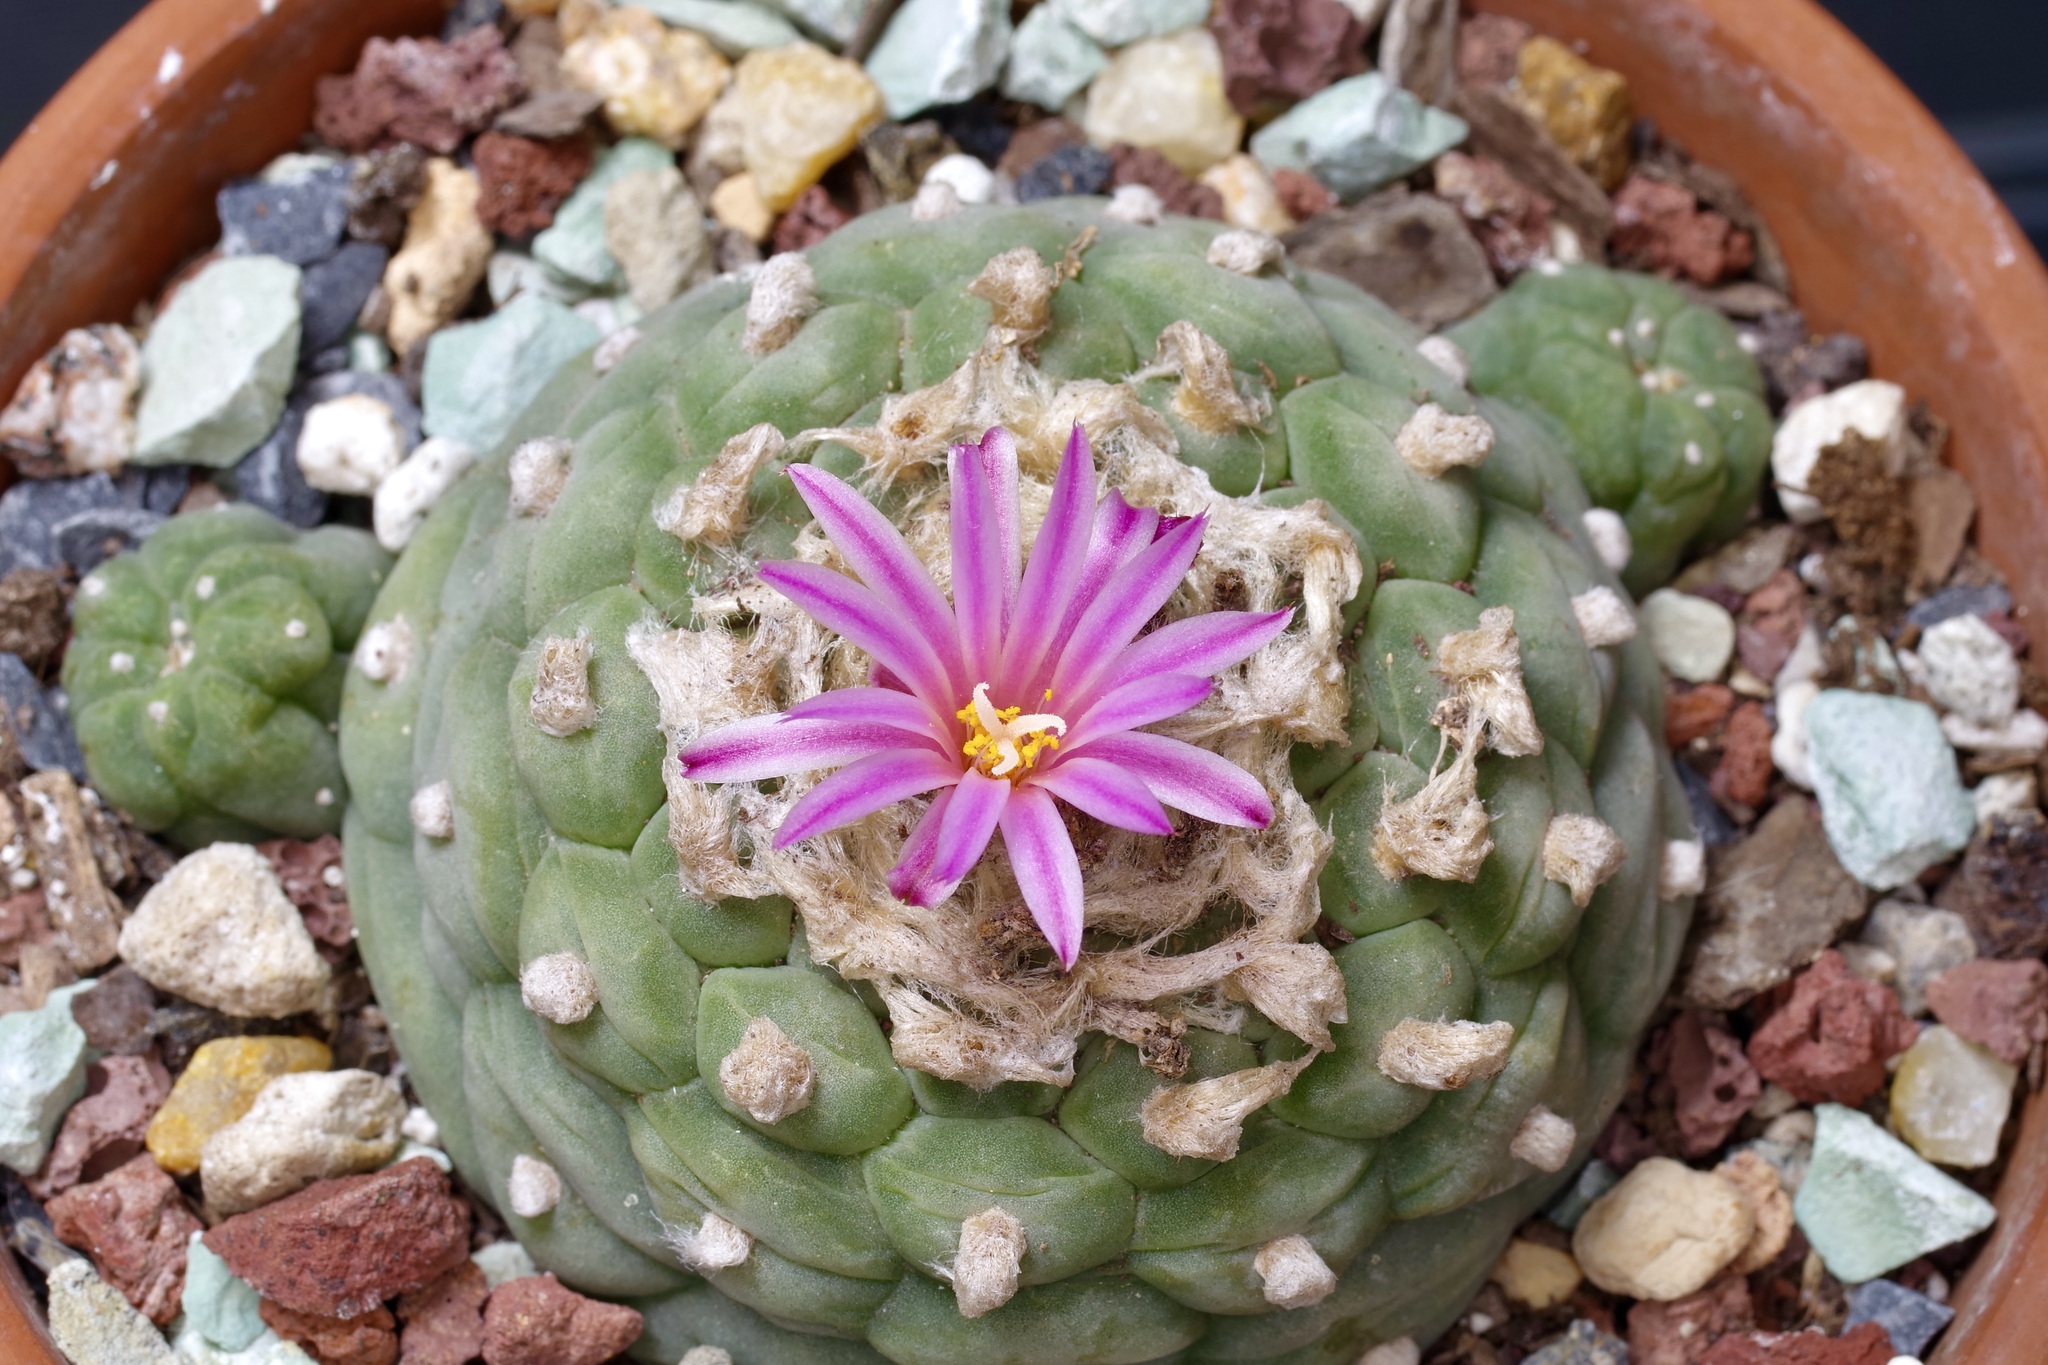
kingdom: Plantae
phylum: Tracheophyta
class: Magnoliopsida
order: Caryophyllales
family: Cactaceae
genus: Lophophora
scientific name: Lophophora williamsii
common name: Indian-dope
